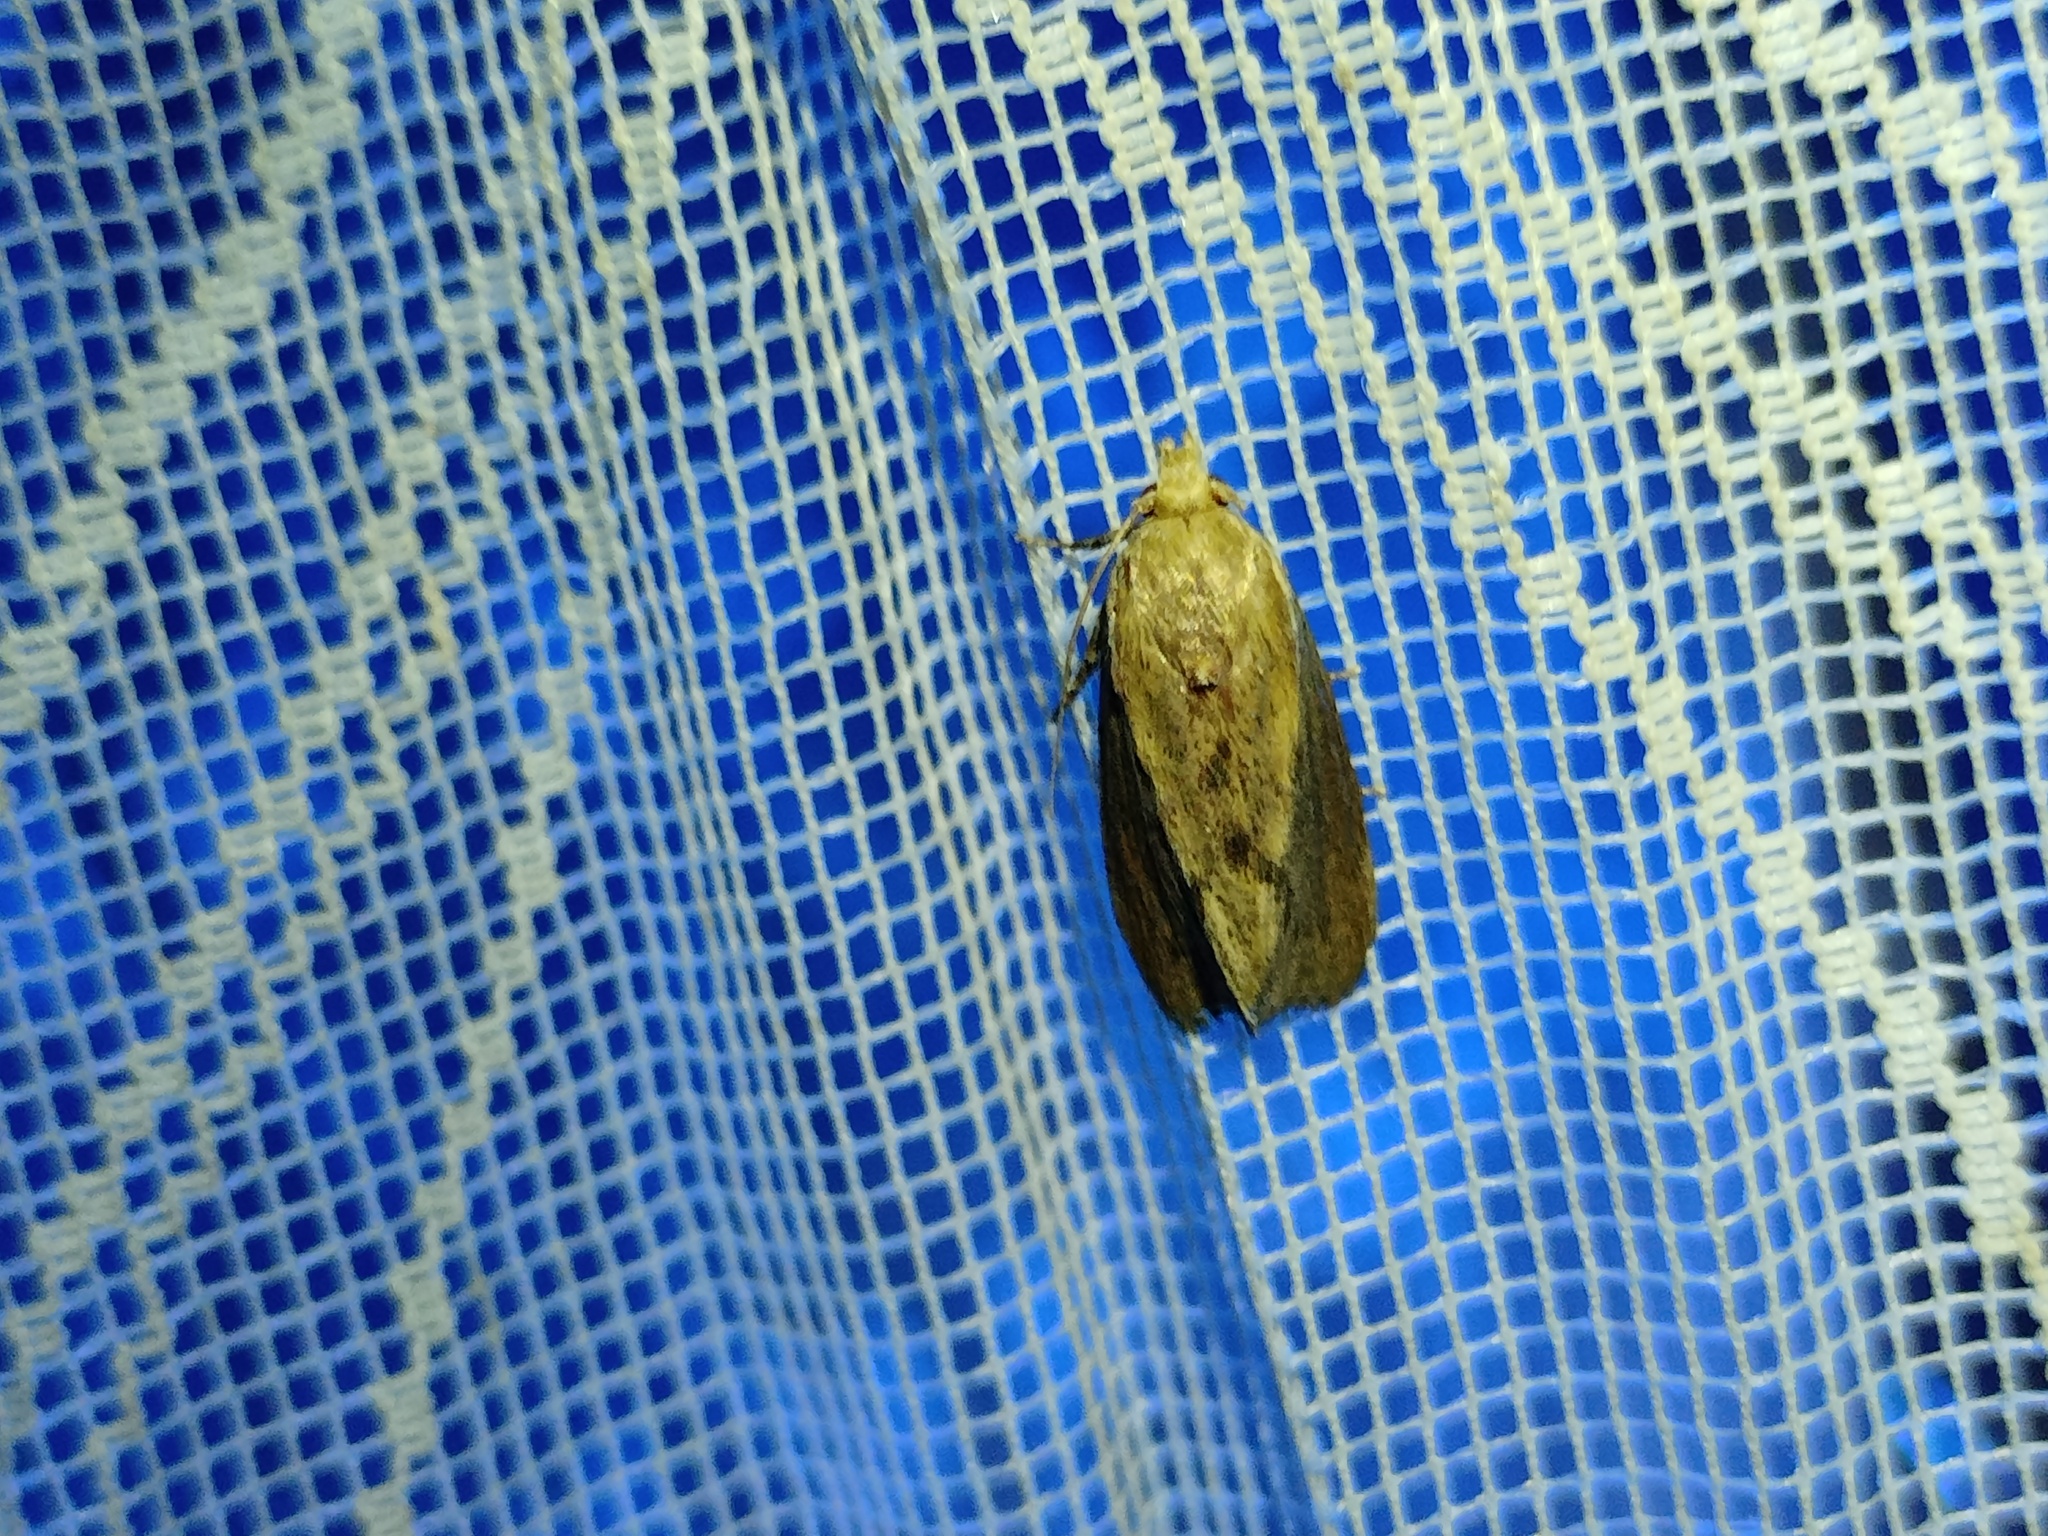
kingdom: Animalia
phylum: Arthropoda
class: Insecta
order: Lepidoptera
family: Pyralidae
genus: Galleria
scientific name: Galleria mellonella
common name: Greater wax moth
